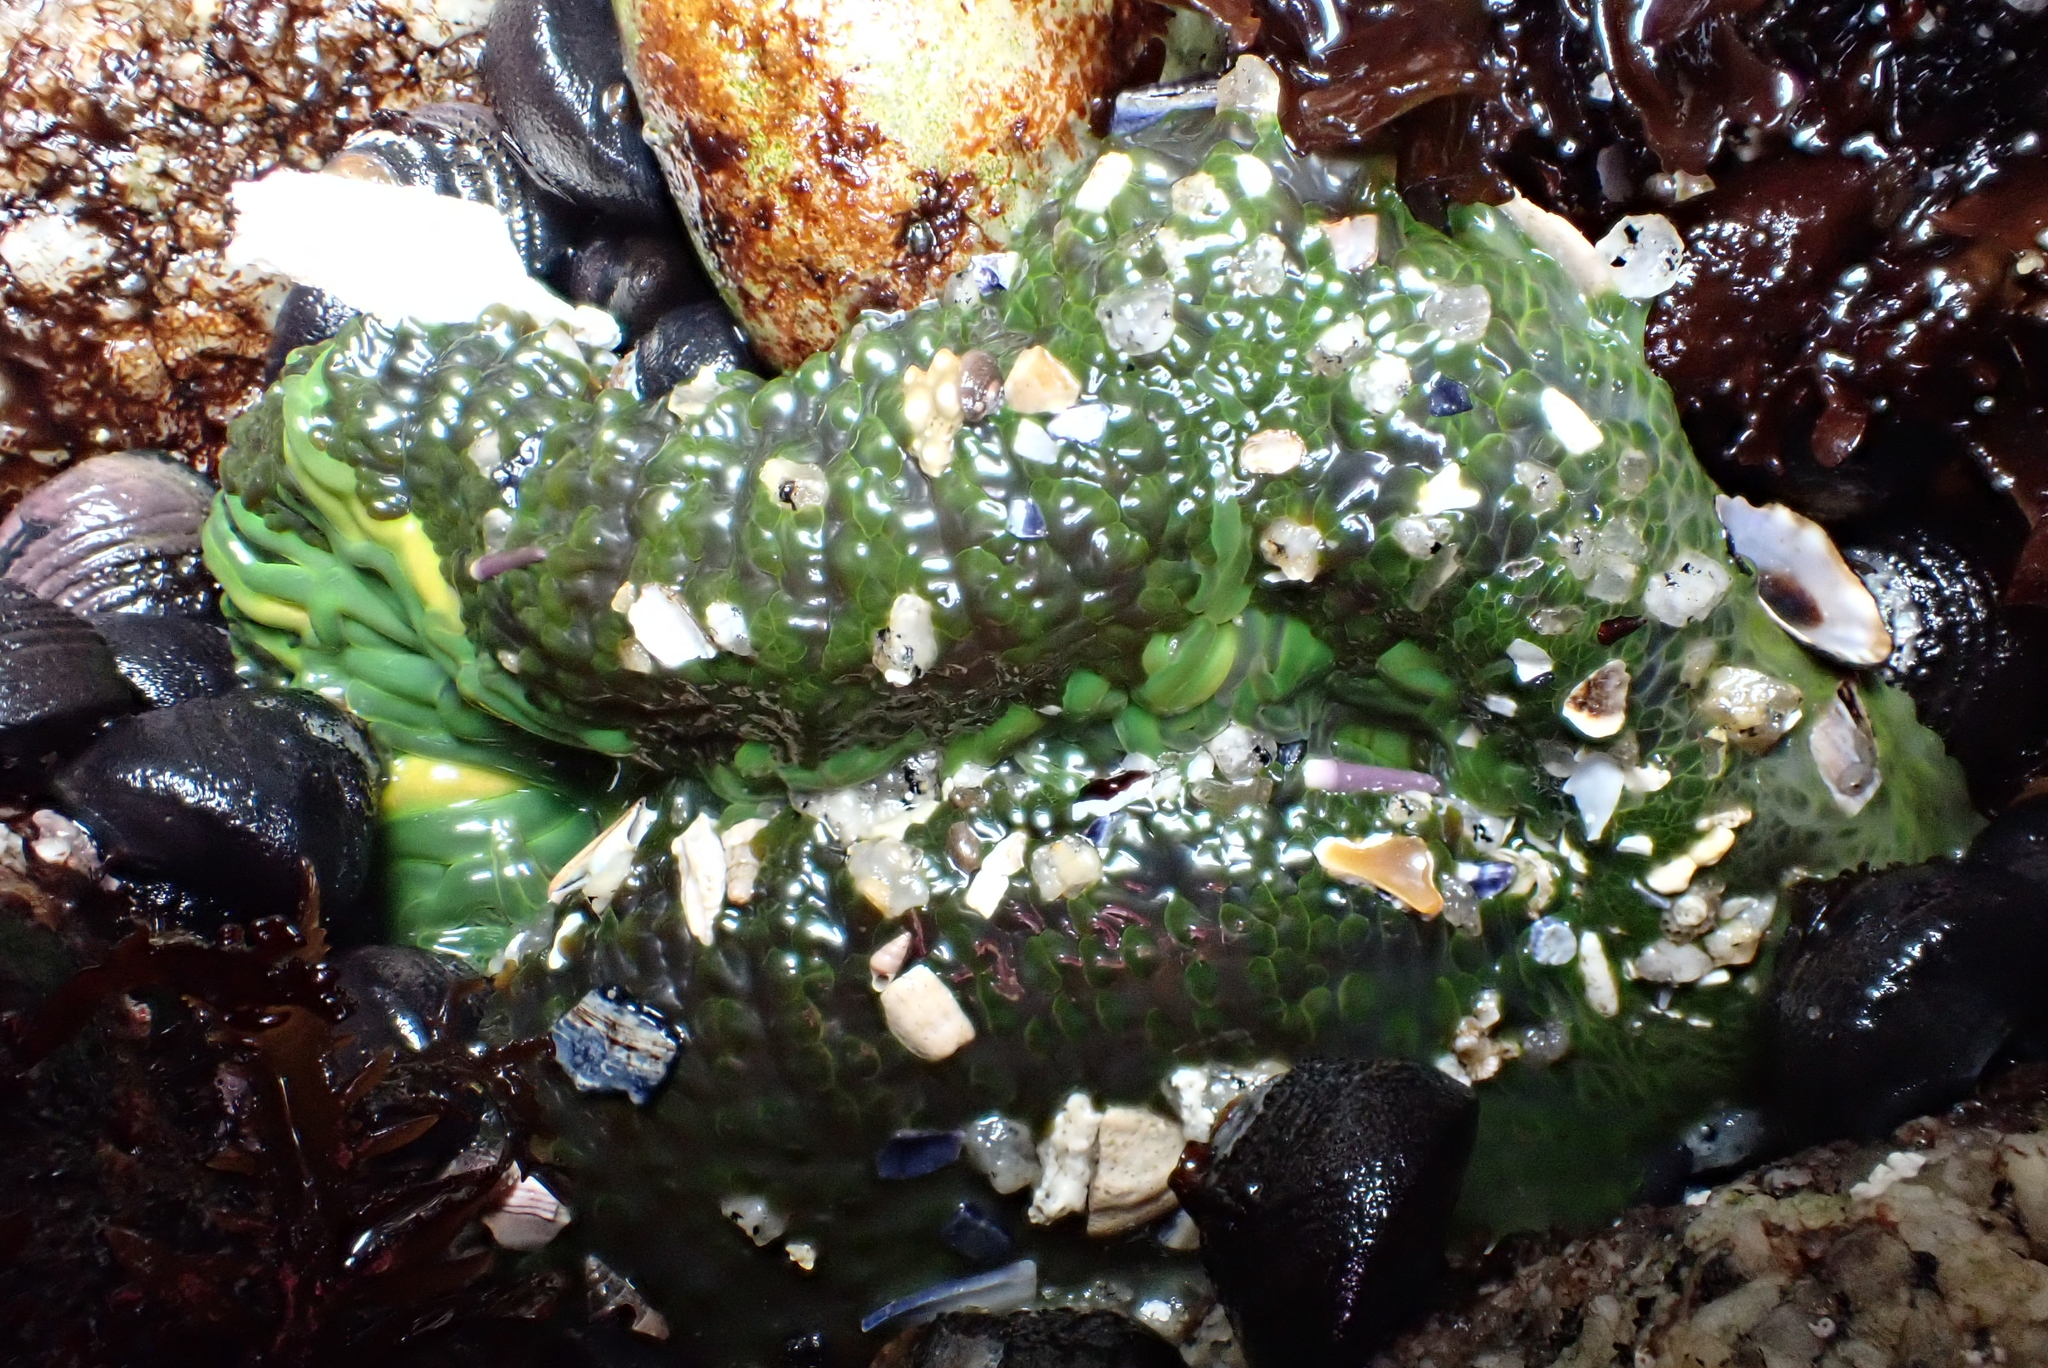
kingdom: Animalia
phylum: Cnidaria
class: Anthozoa
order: Actiniaria
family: Actiniidae
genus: Anthopleura
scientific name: Anthopleura sola
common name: Sun anemone
